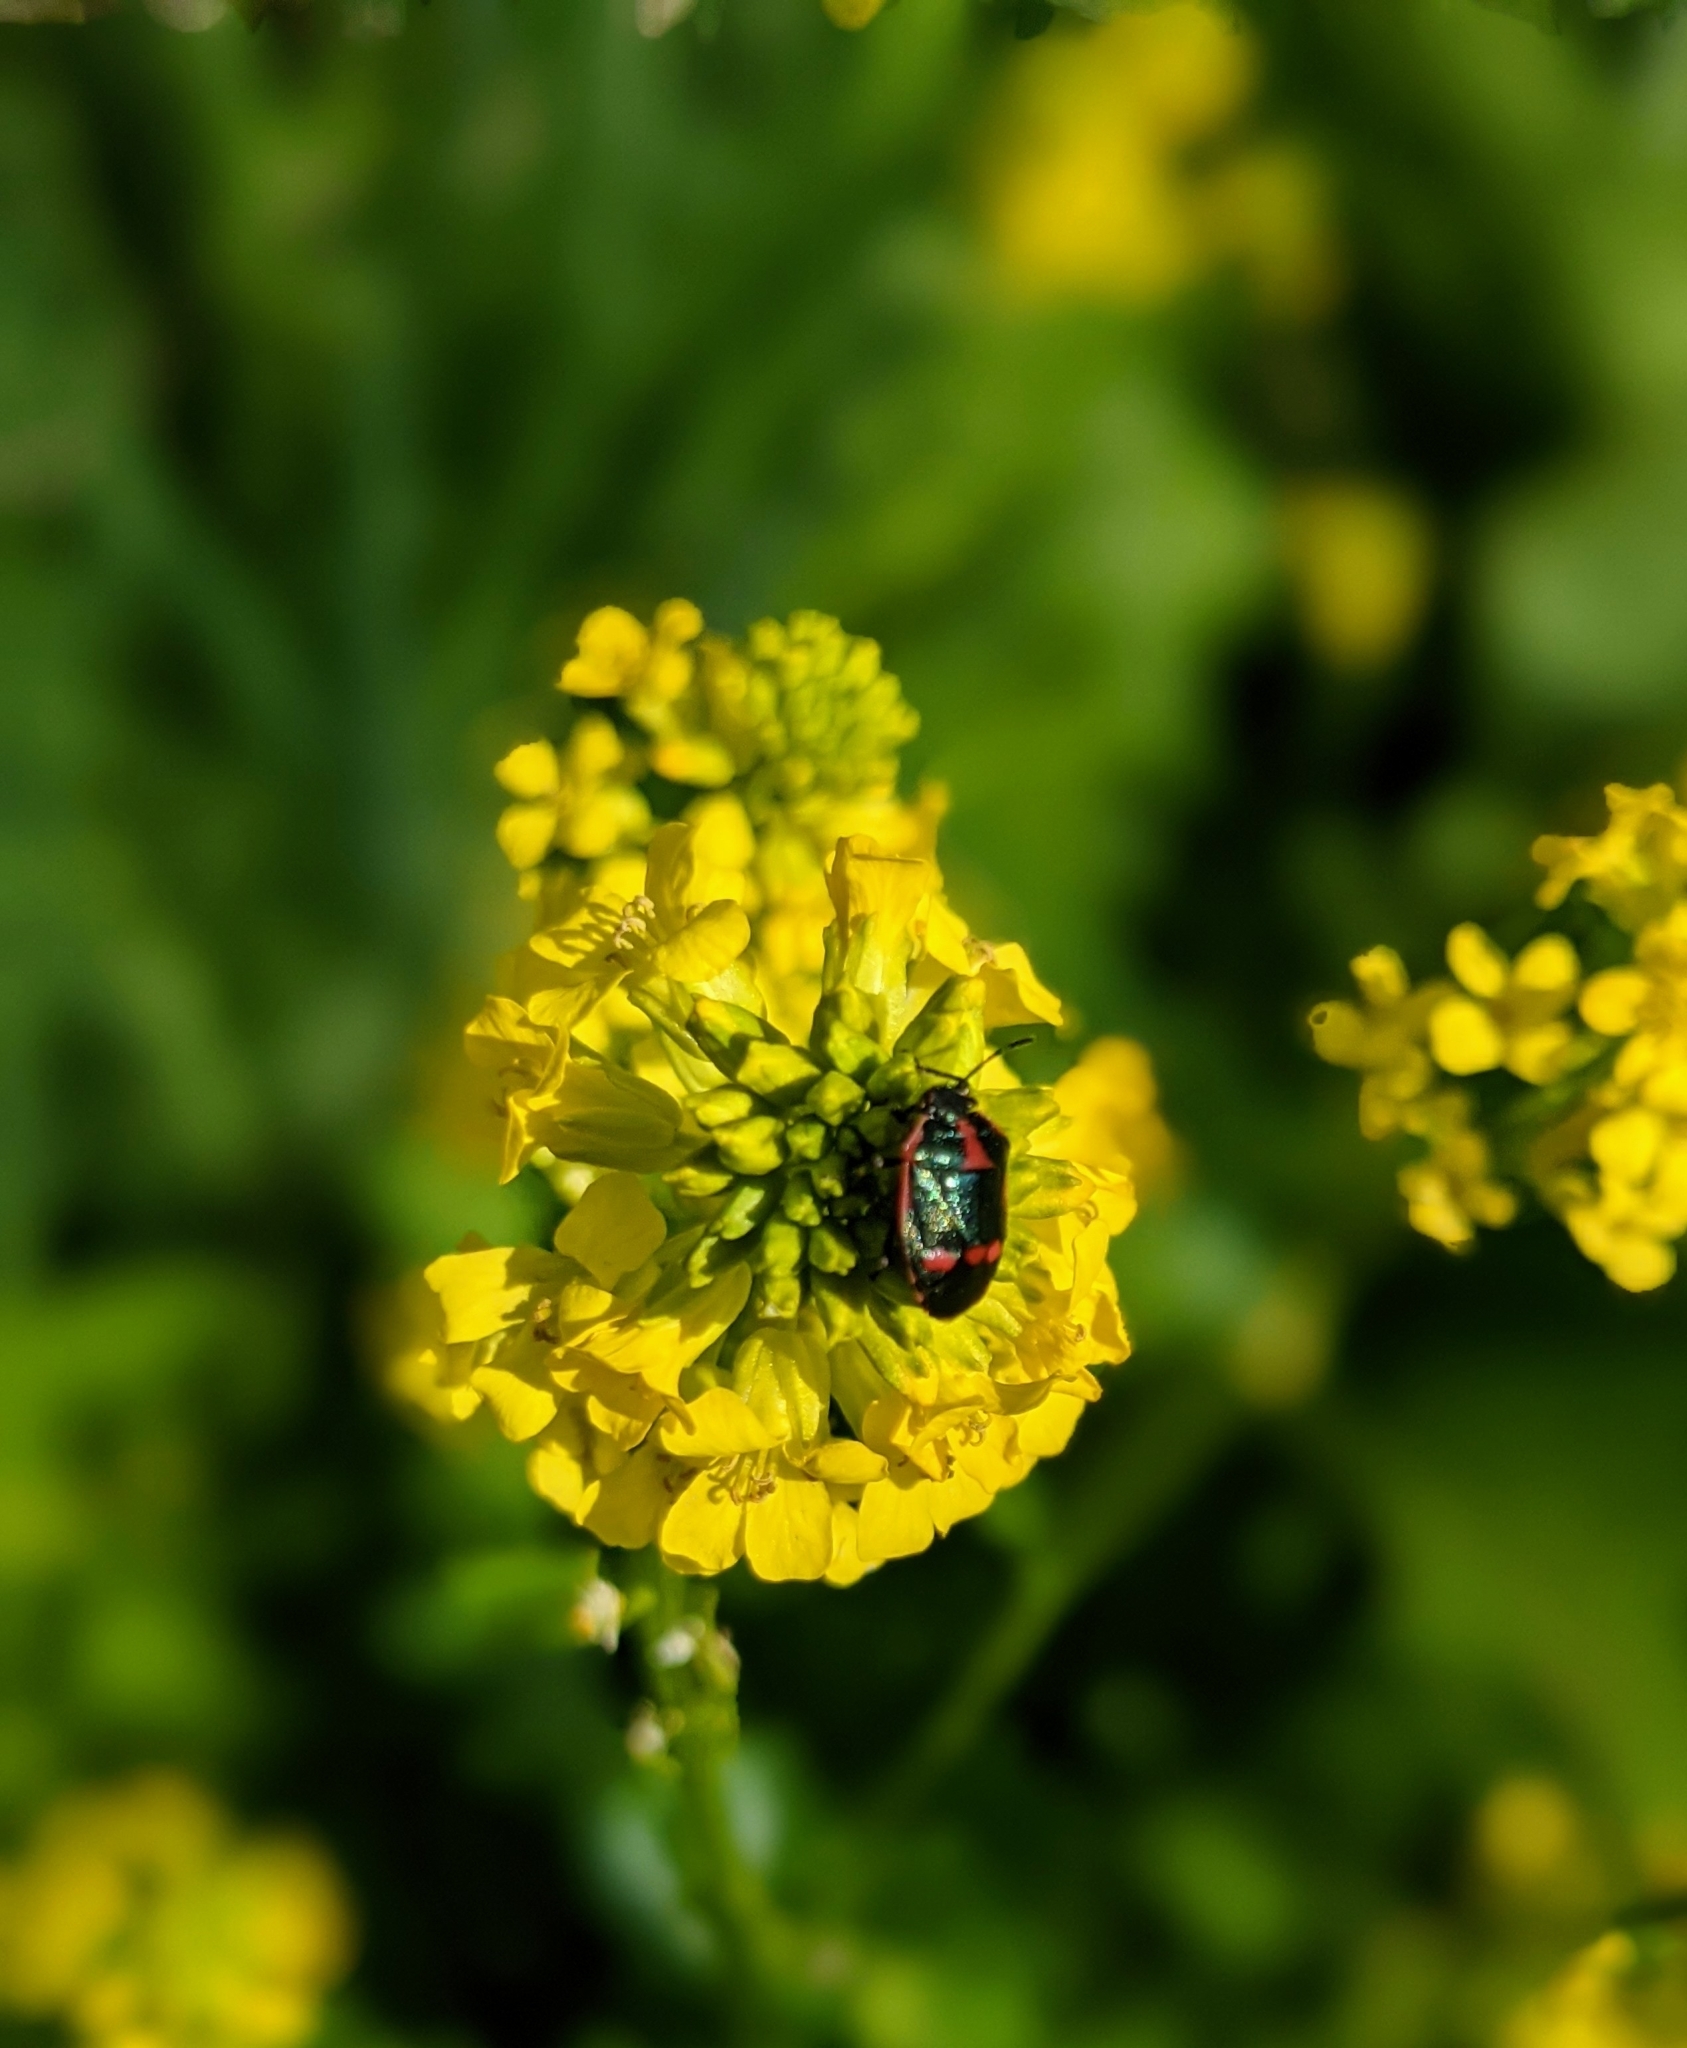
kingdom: Animalia
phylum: Arthropoda
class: Insecta
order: Hemiptera
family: Pentatomidae
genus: Eurydema
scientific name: Eurydema oleracea
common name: Cabbage bug
